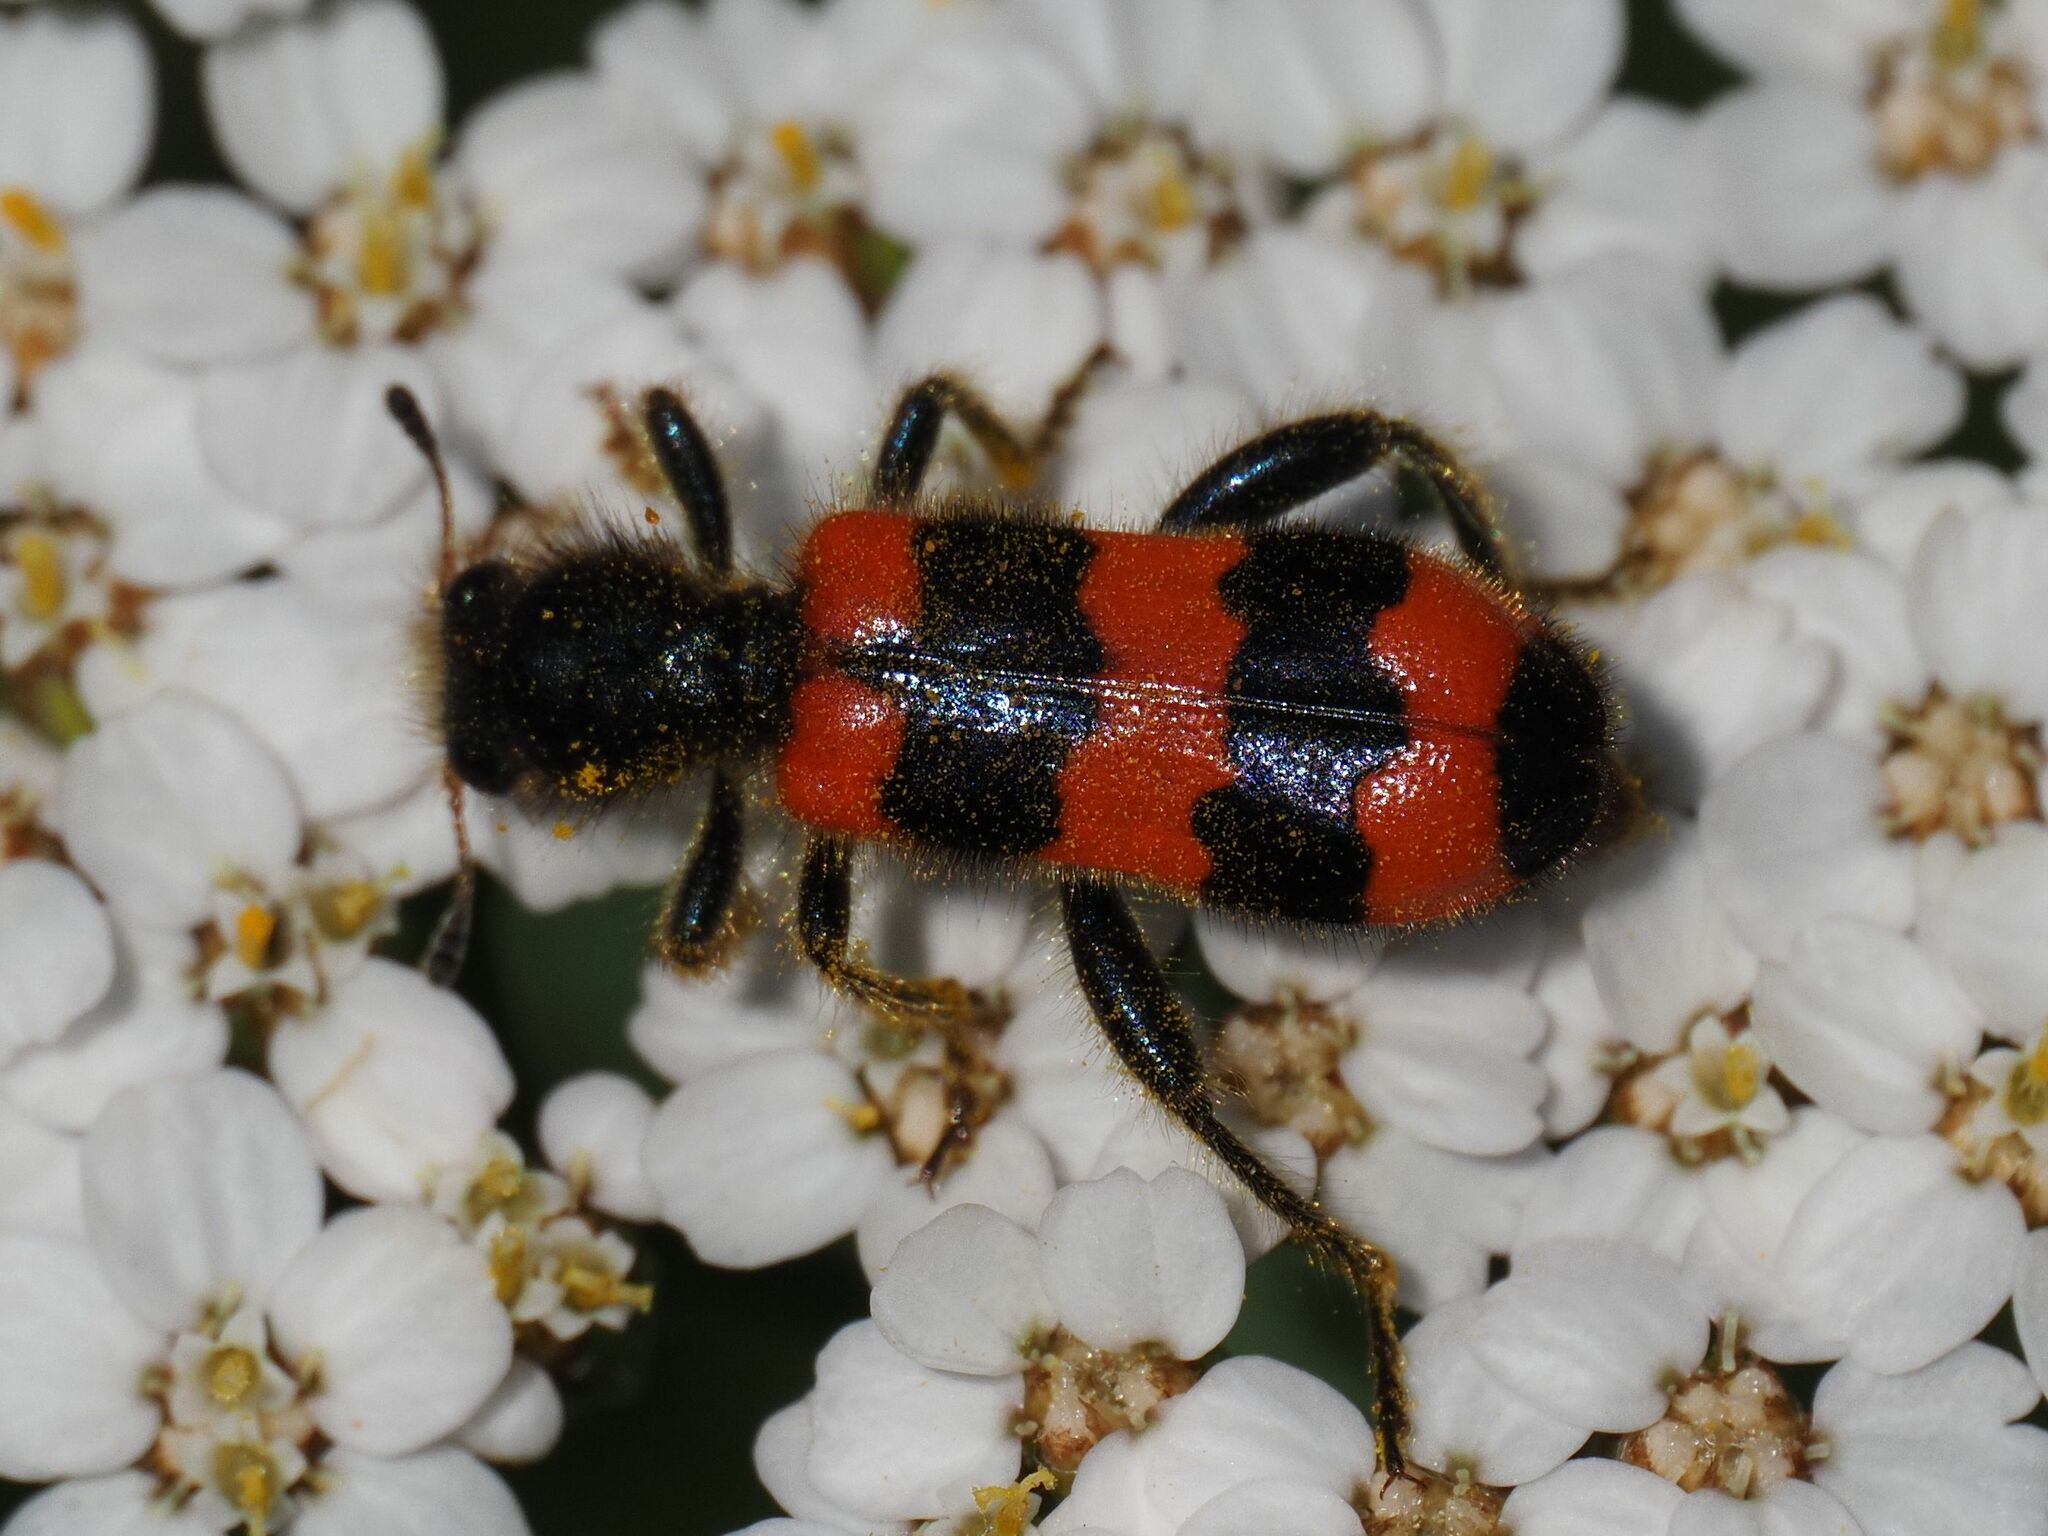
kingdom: Animalia
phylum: Arthropoda
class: Insecta
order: Coleoptera
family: Cleridae
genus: Trichodes
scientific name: Trichodes apiarius
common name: Bee-eating beetle
